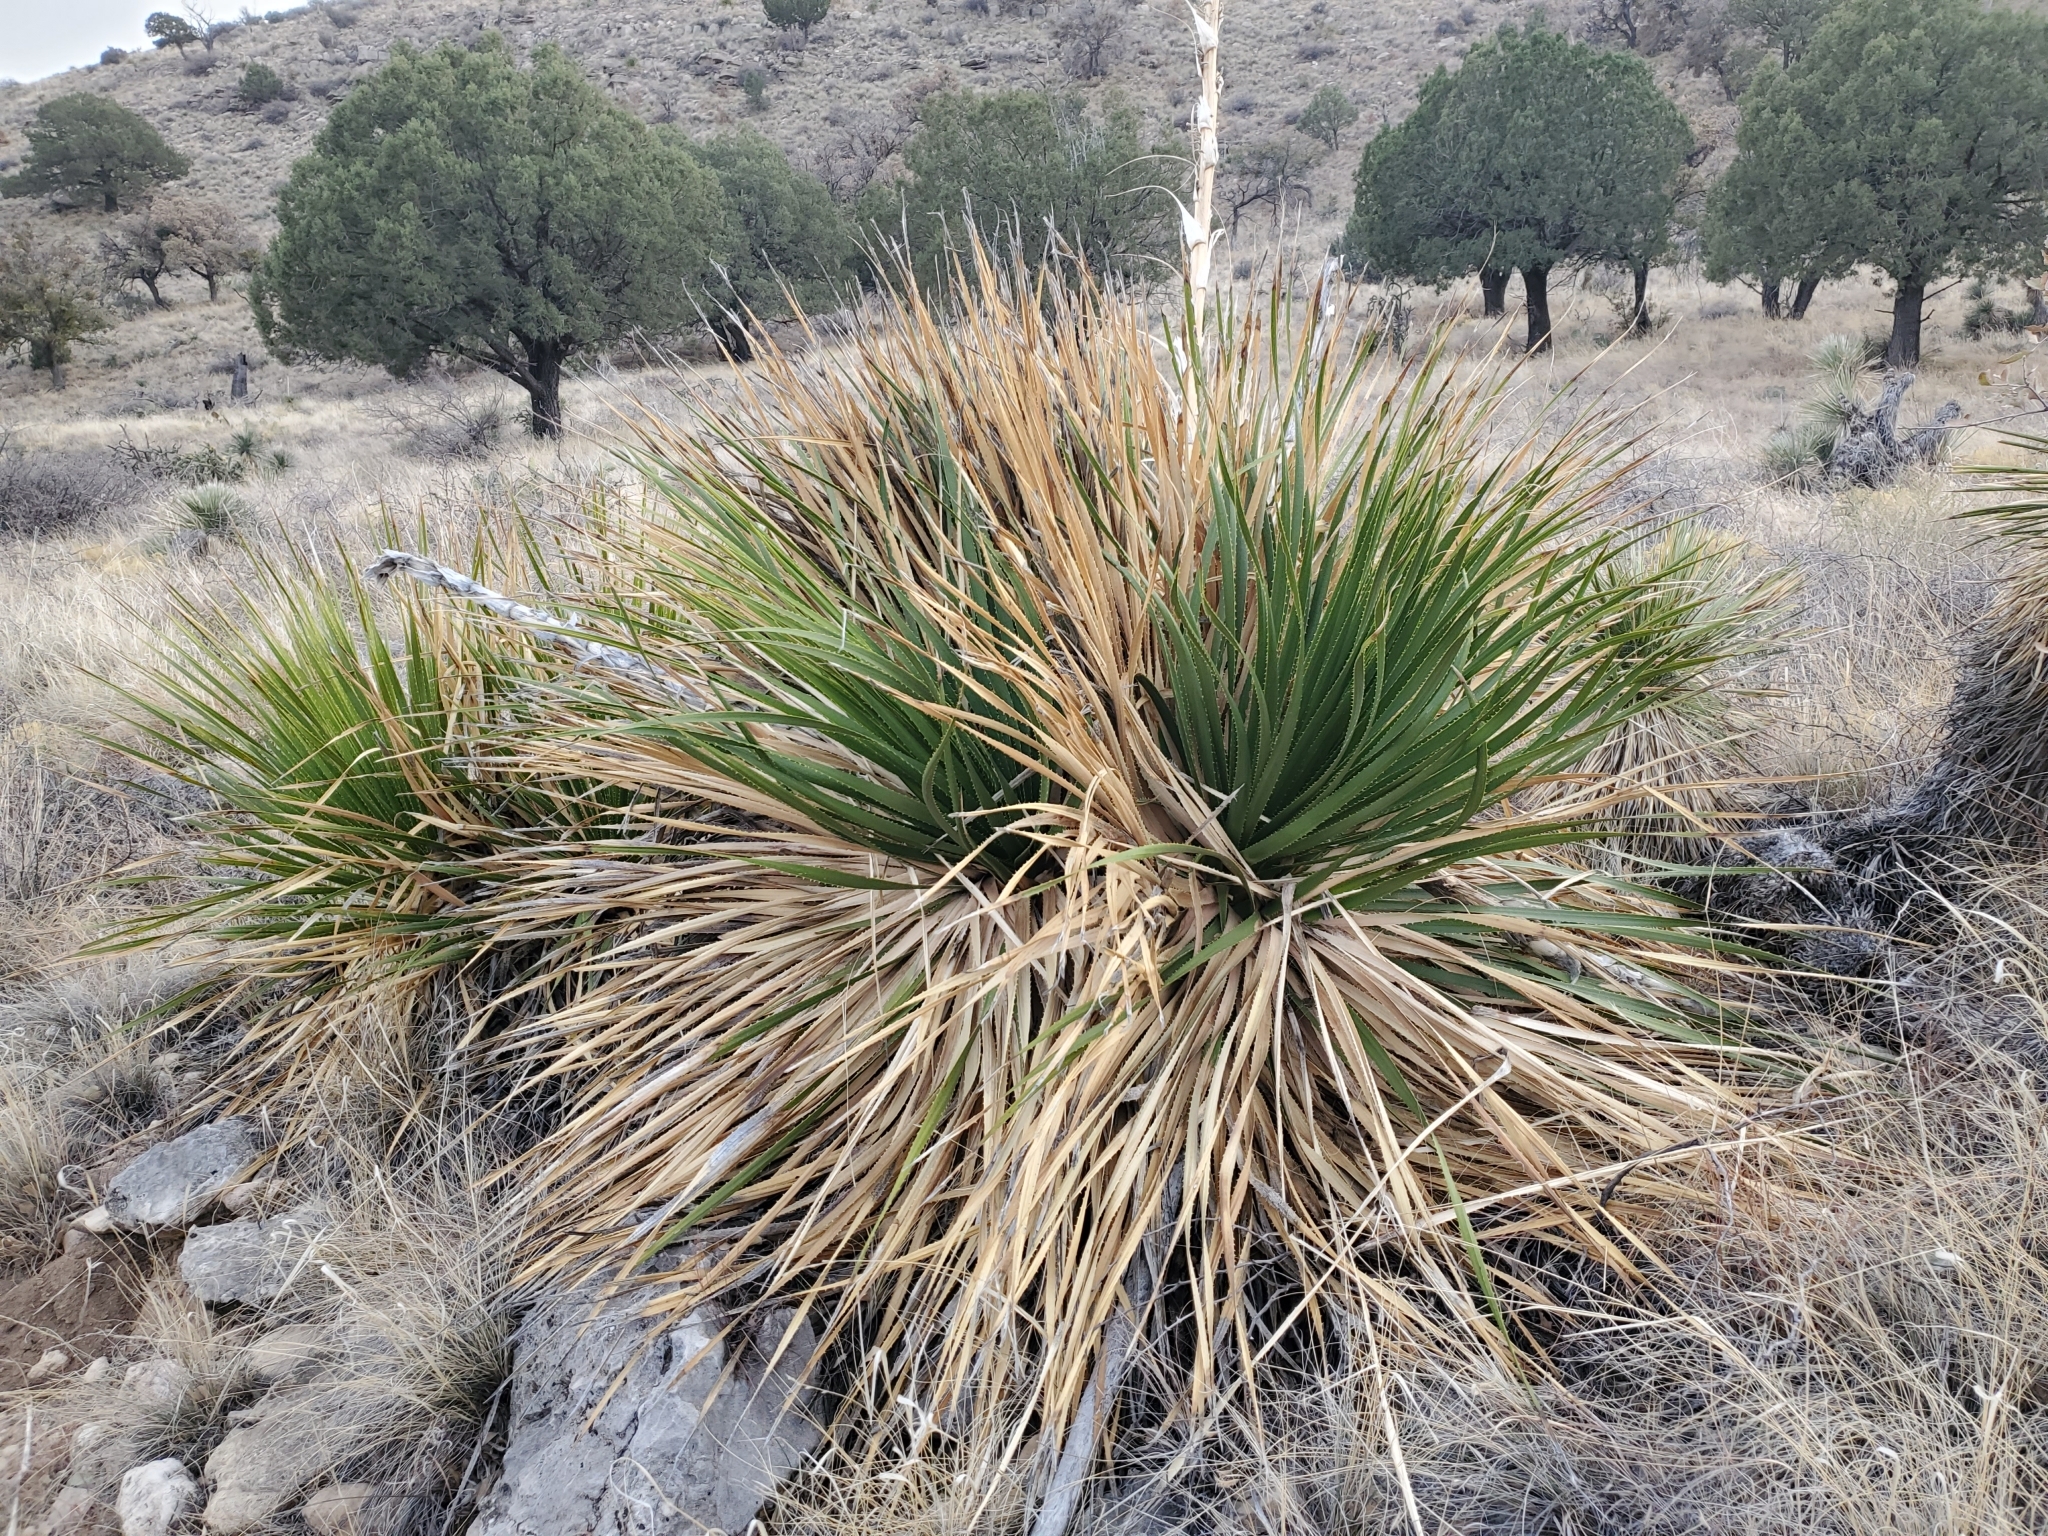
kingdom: Plantae
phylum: Tracheophyta
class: Liliopsida
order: Asparagales
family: Asparagaceae
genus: Dasylirion
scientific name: Dasylirion leiophyllum
